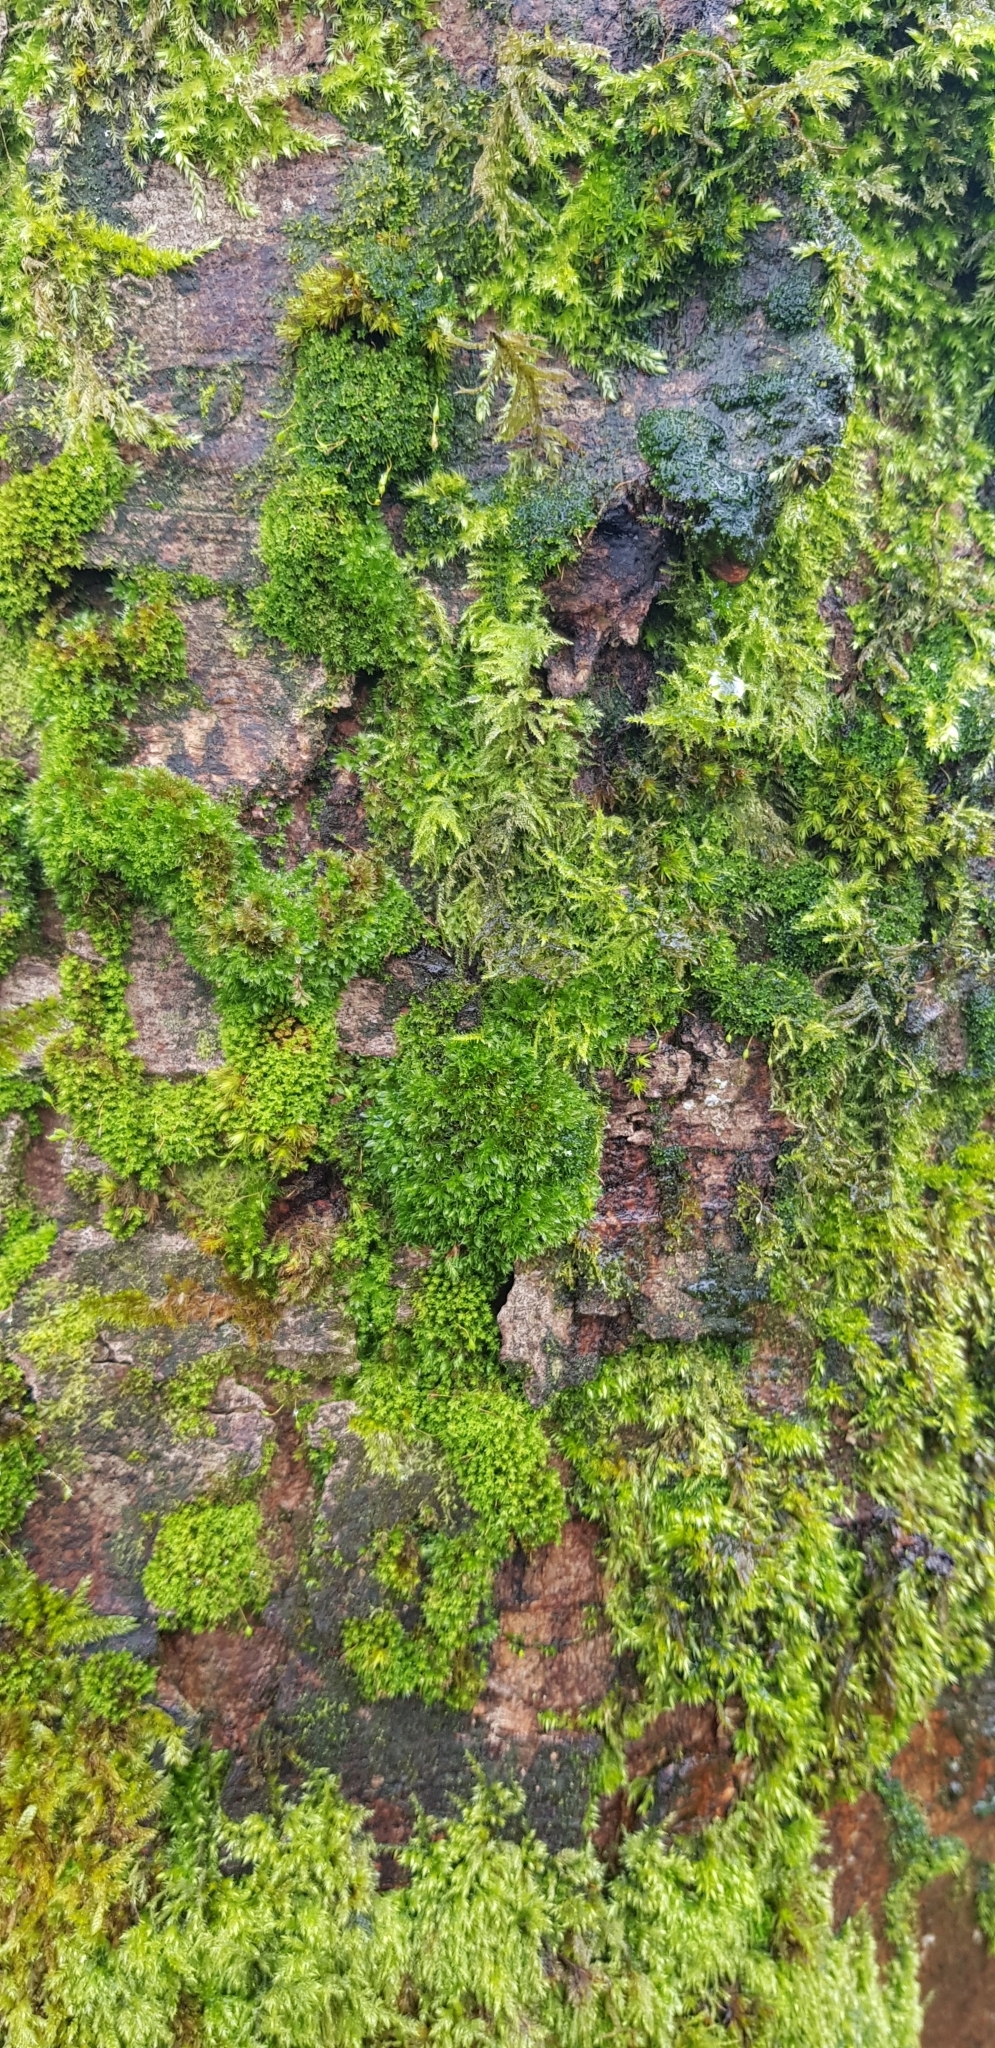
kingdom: Plantae
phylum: Bryophyta
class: Bryopsida
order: Bryales
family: Bryaceae
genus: Rosulabryum
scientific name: Rosulabryum capillare
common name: Capillary thread-moss
